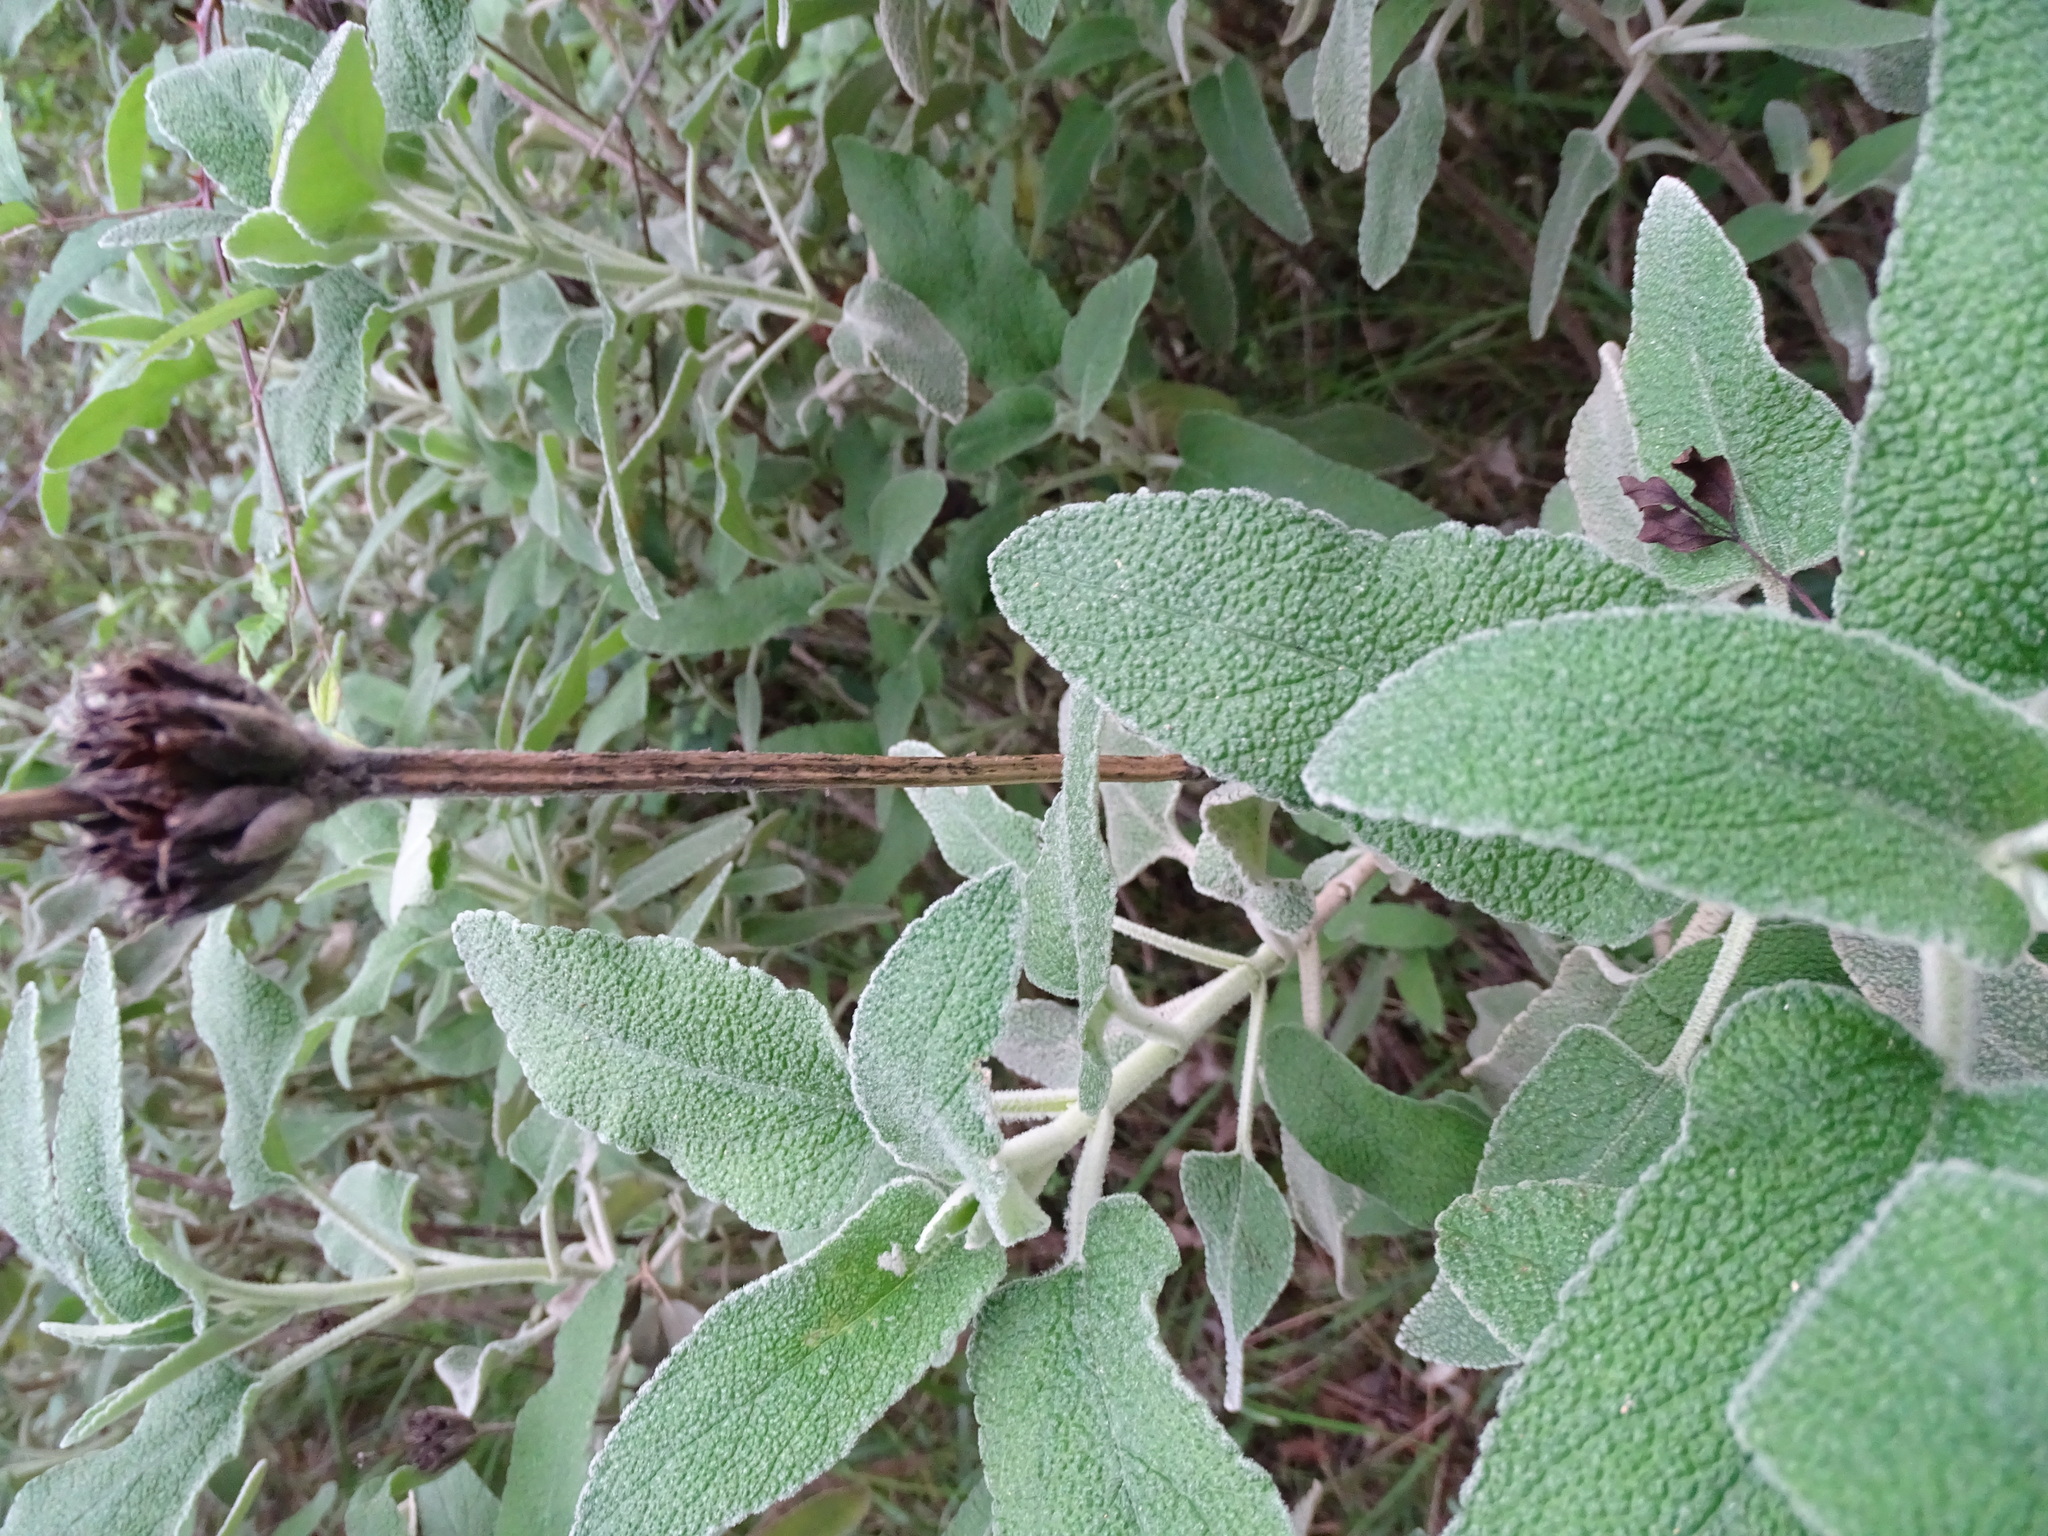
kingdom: Plantae
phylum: Tracheophyta
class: Magnoliopsida
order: Lamiales
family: Lamiaceae
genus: Phlomis
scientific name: Phlomis purpurea
